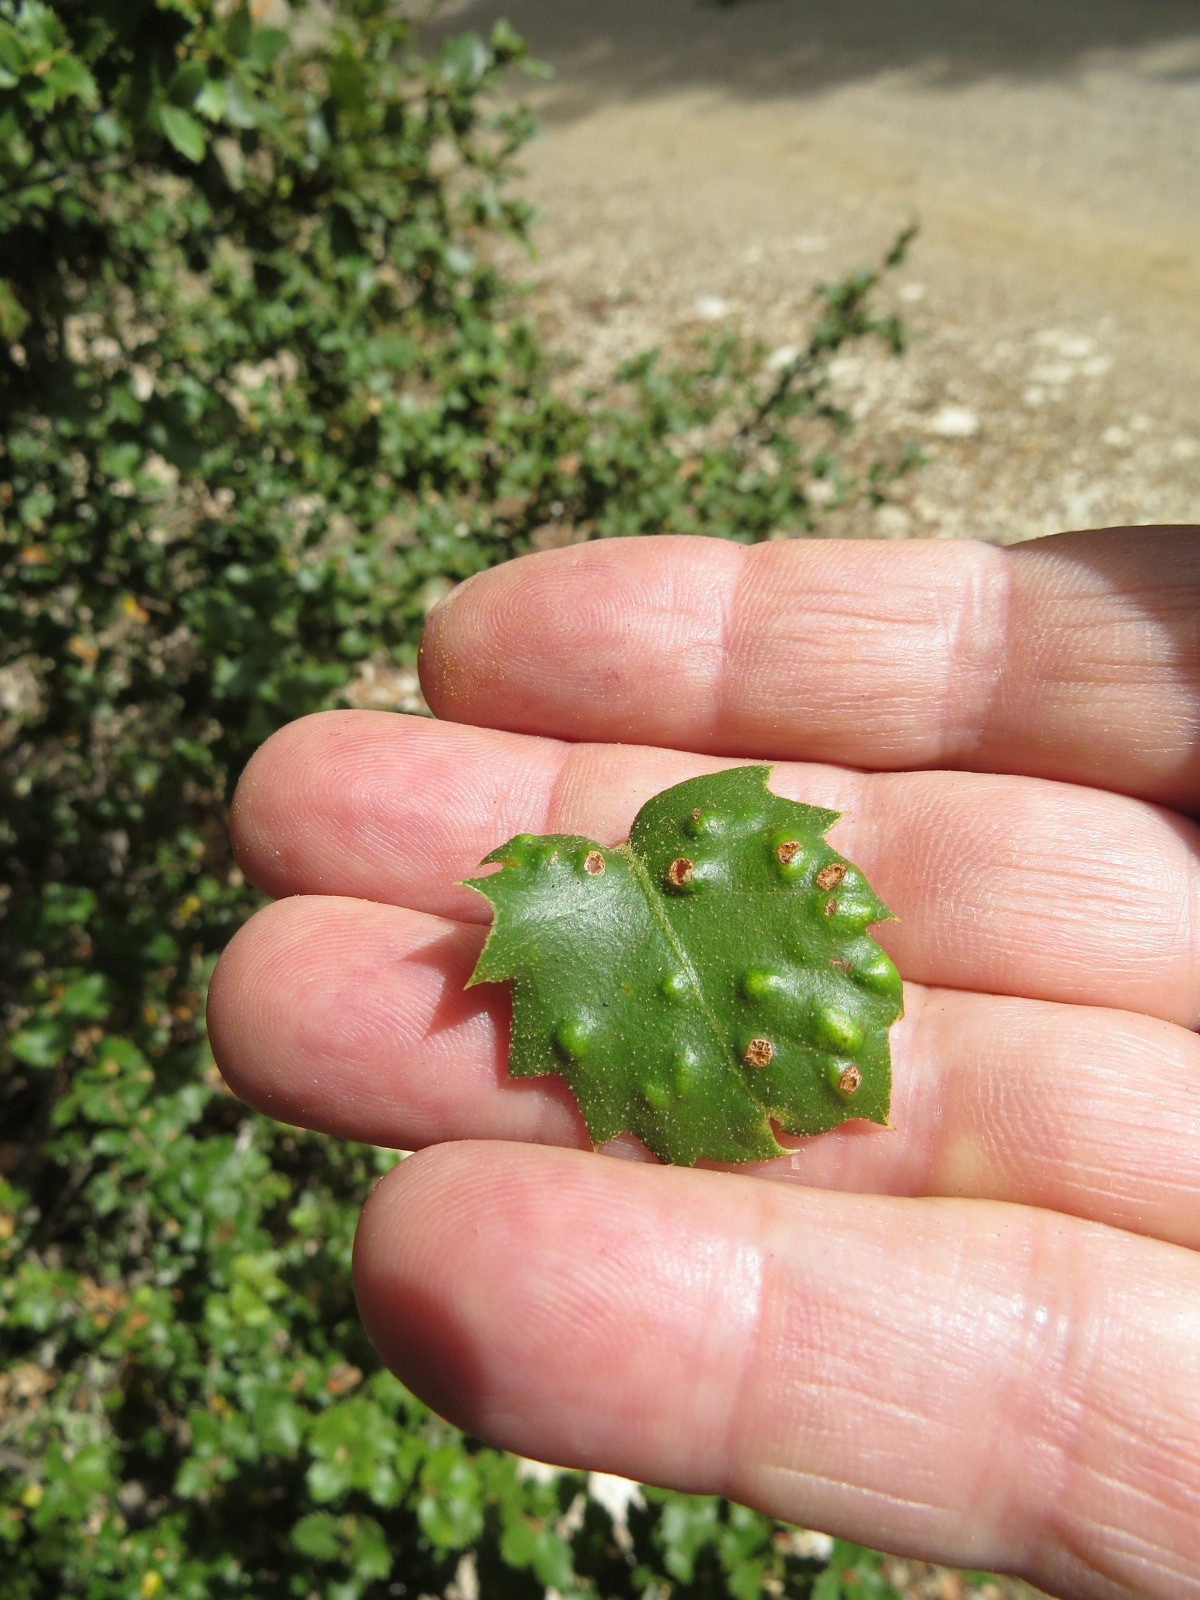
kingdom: Animalia
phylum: Arthropoda
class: Arachnida
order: Trombidiformes
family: Eriophyidae
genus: Aceria
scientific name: Aceria
